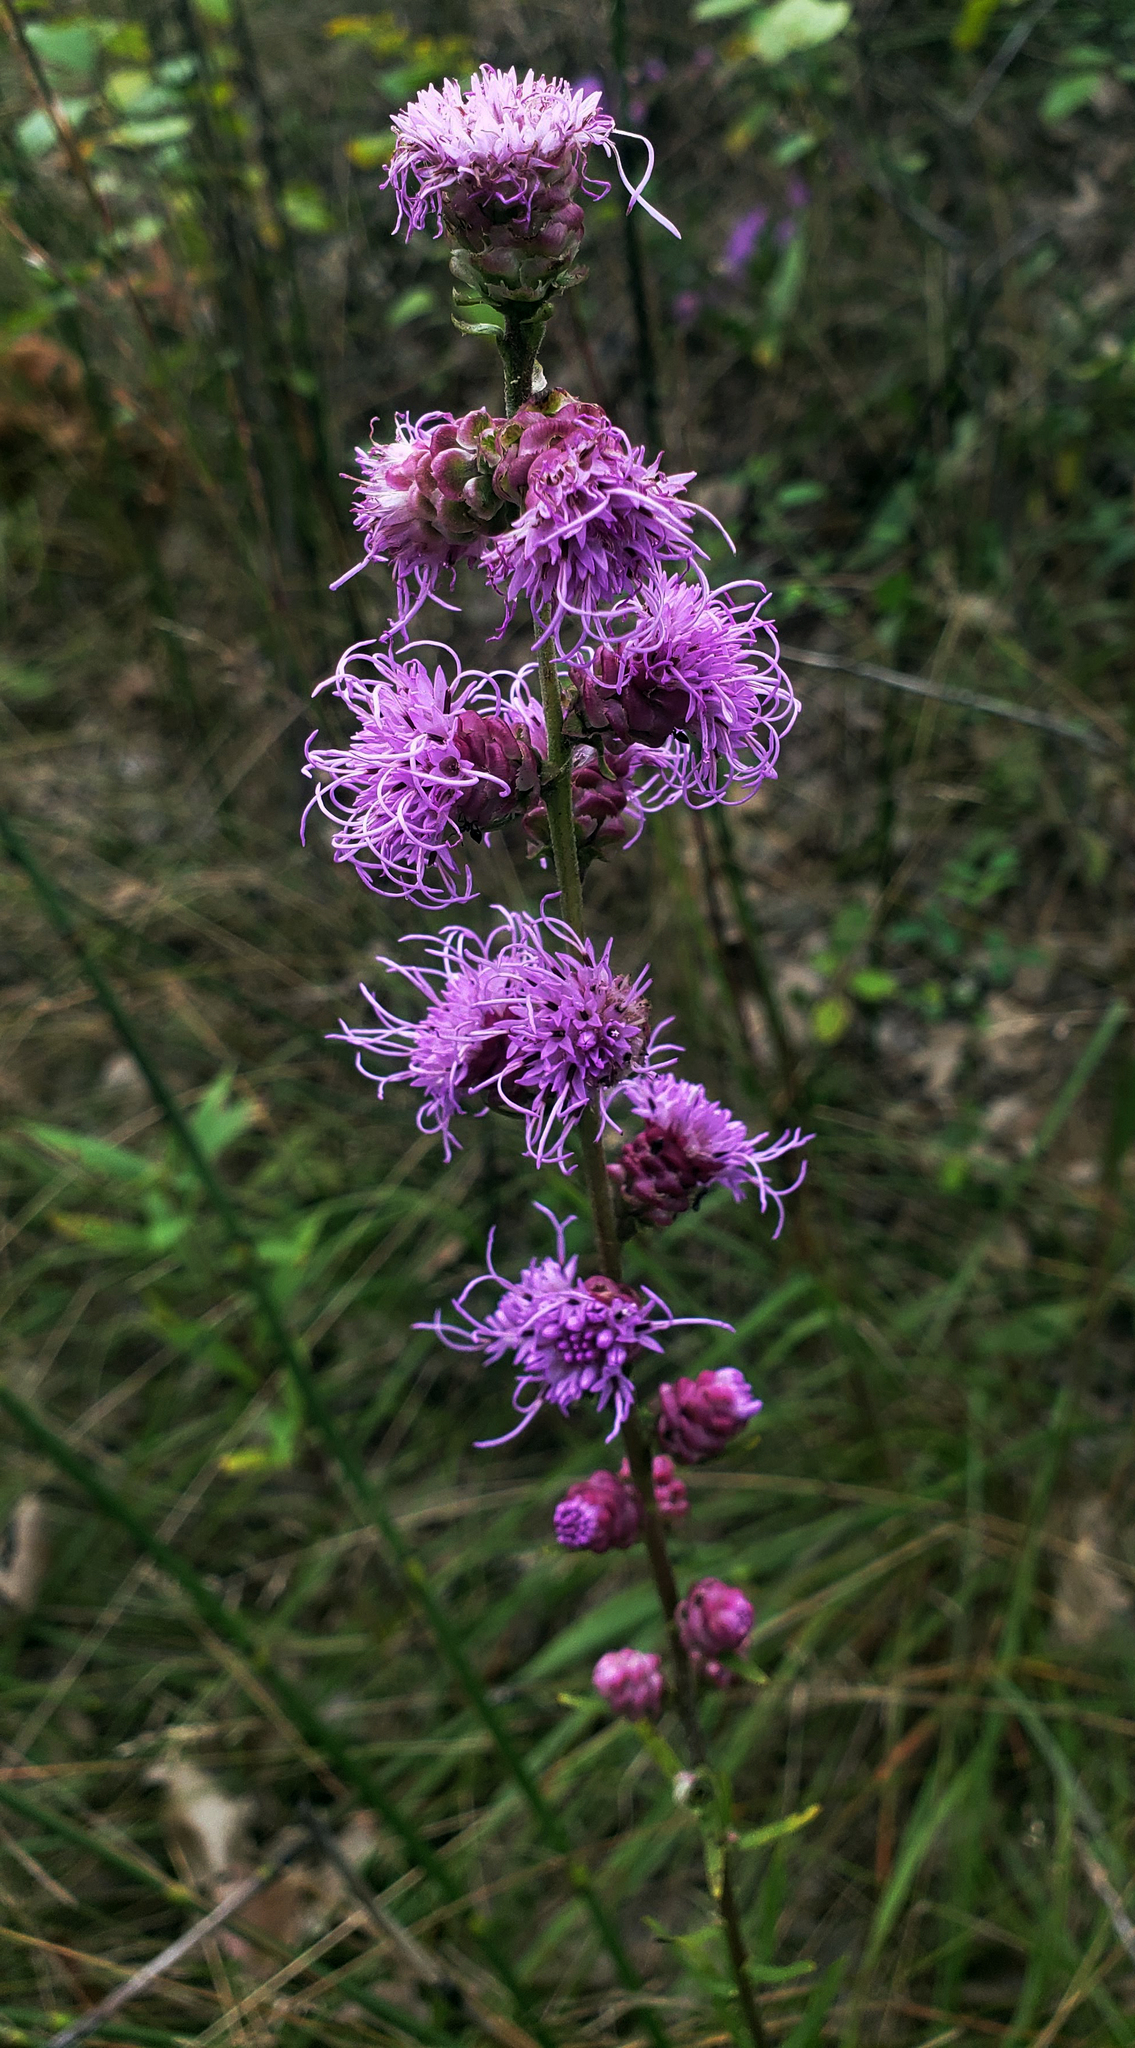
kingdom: Plantae
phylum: Tracheophyta
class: Magnoliopsida
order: Asterales
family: Asteraceae
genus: Liatris
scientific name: Liatris aspera
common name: Lacerate blazing-star
